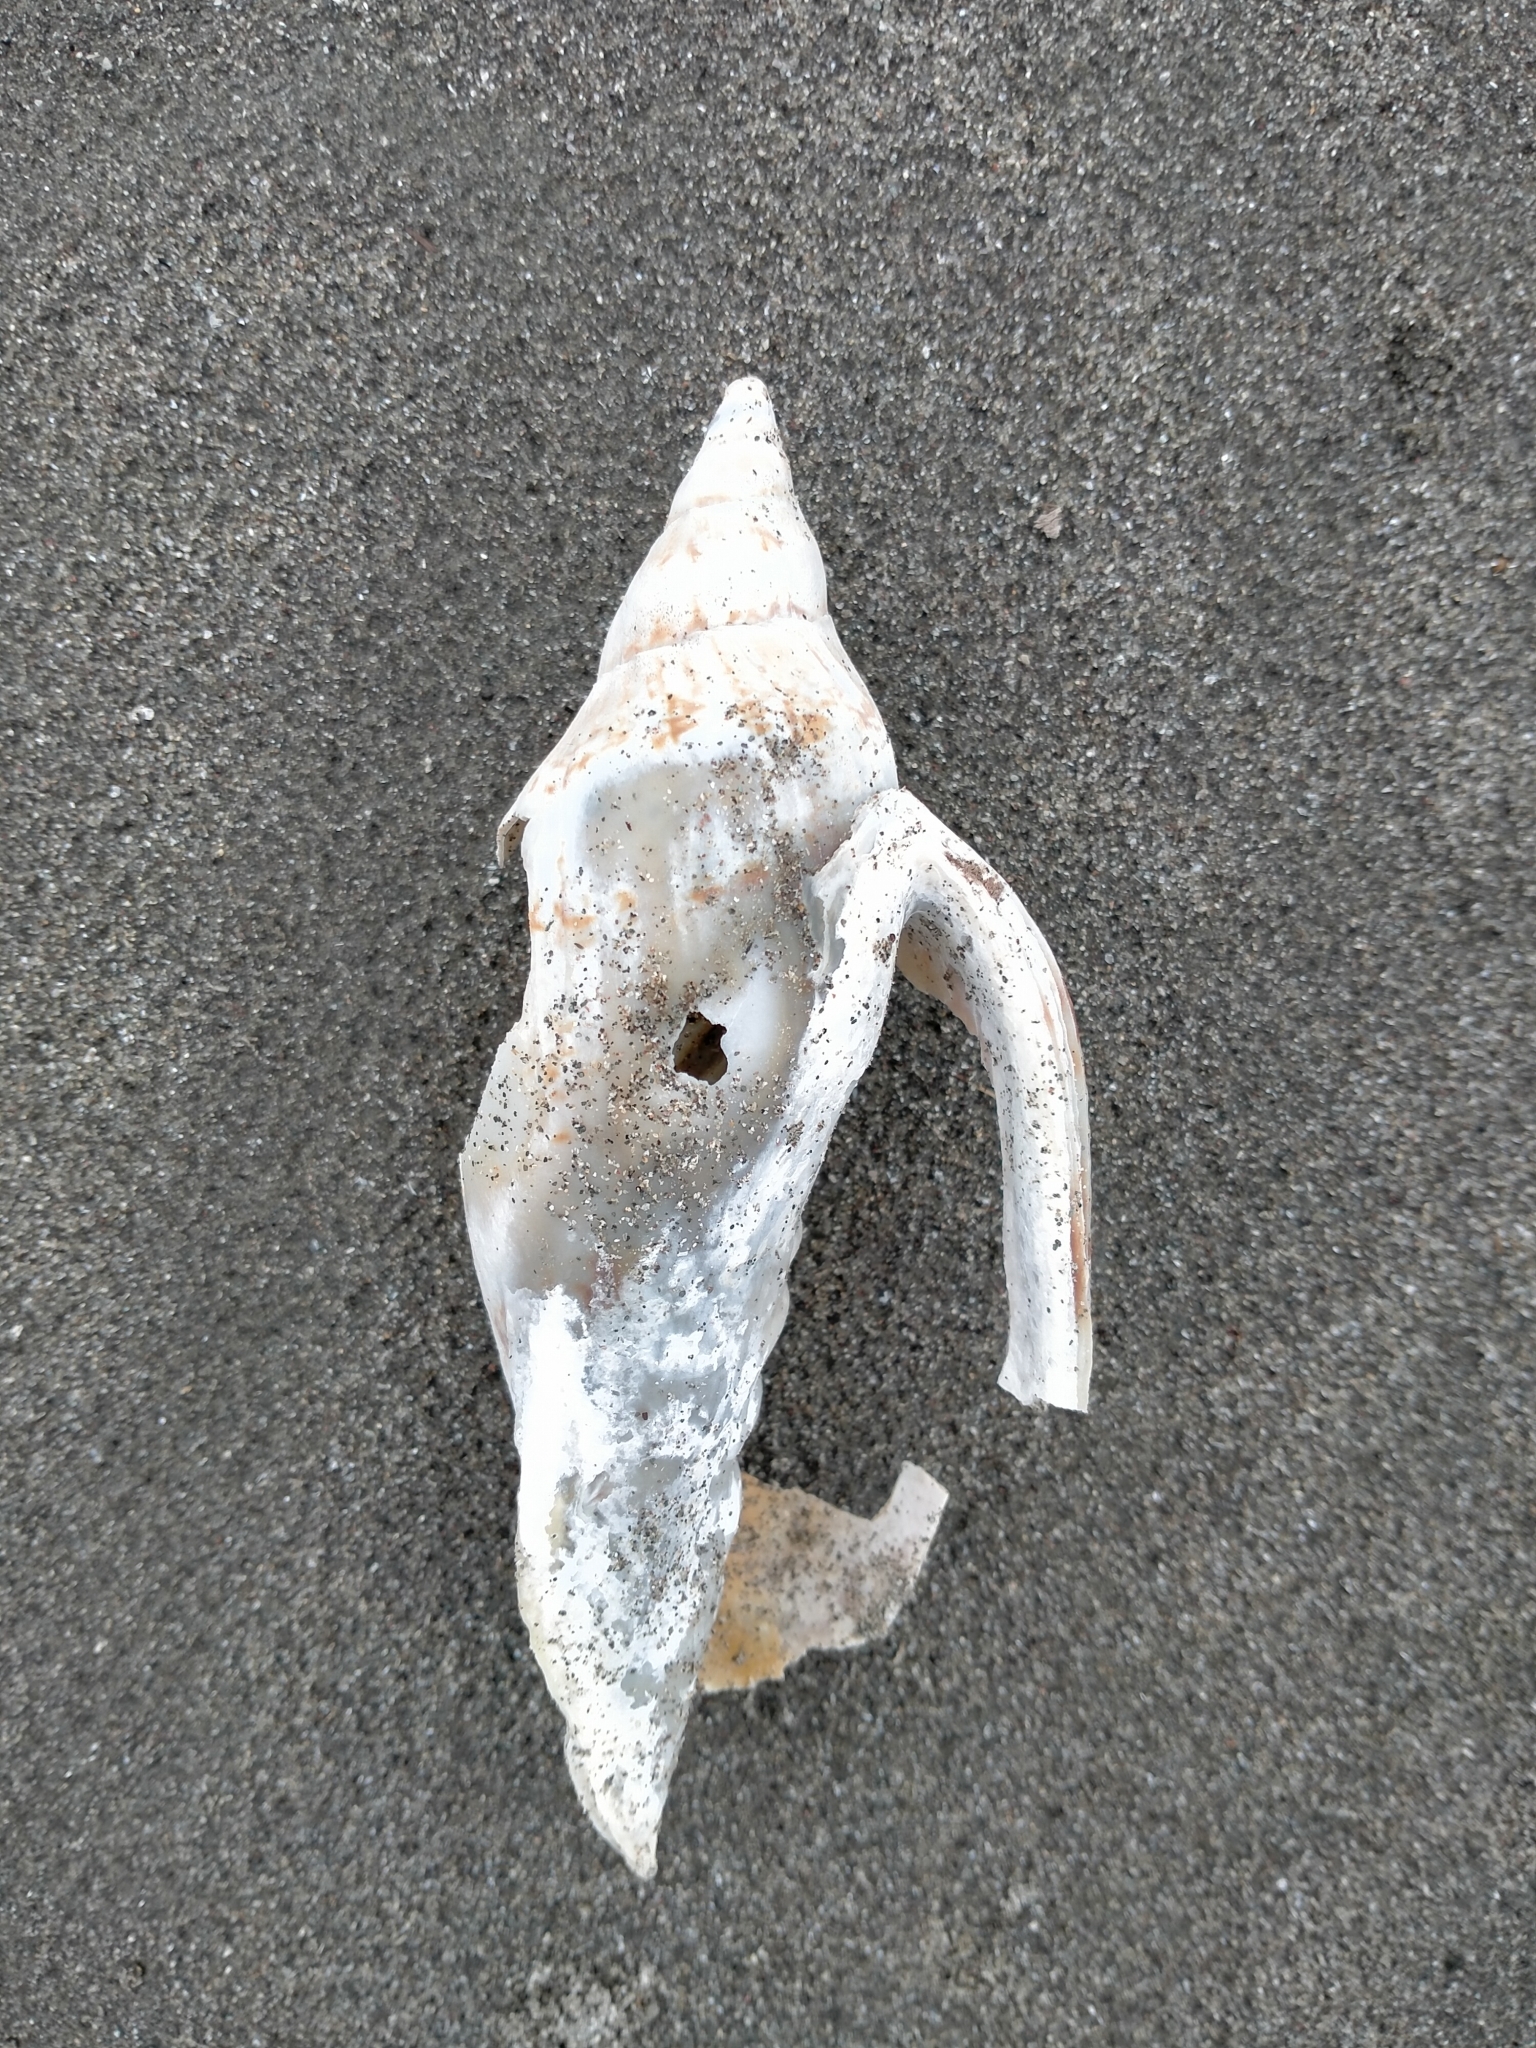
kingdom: Animalia
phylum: Mollusca
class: Gastropoda
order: Neogastropoda
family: Volutidae
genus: Alcithoe
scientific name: Alcithoe arabica
